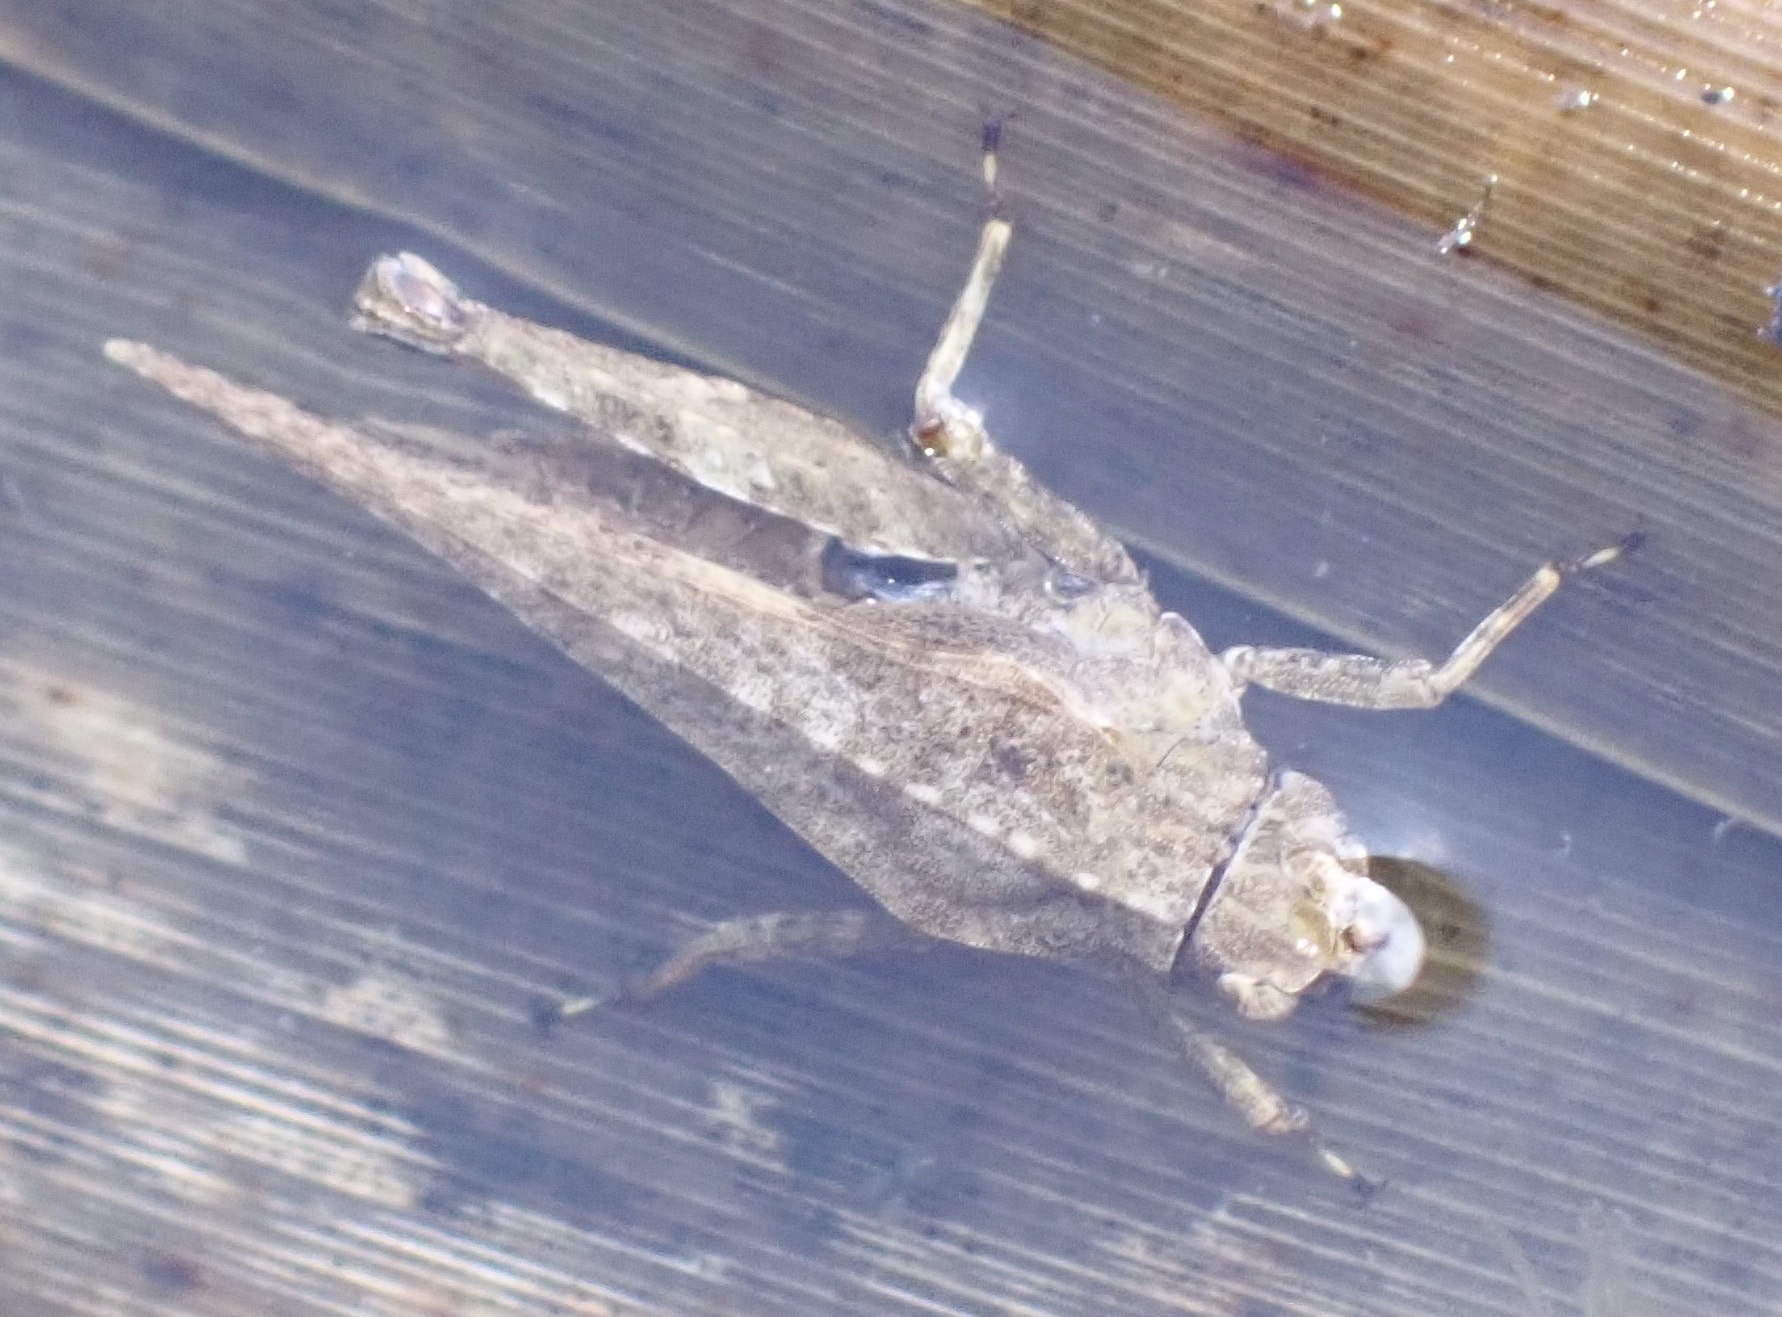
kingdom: Animalia
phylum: Arthropoda
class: Insecta
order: Orthoptera
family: Tetrigidae
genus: Tetrix
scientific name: Tetrix subulata
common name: Slender ground-hopper
